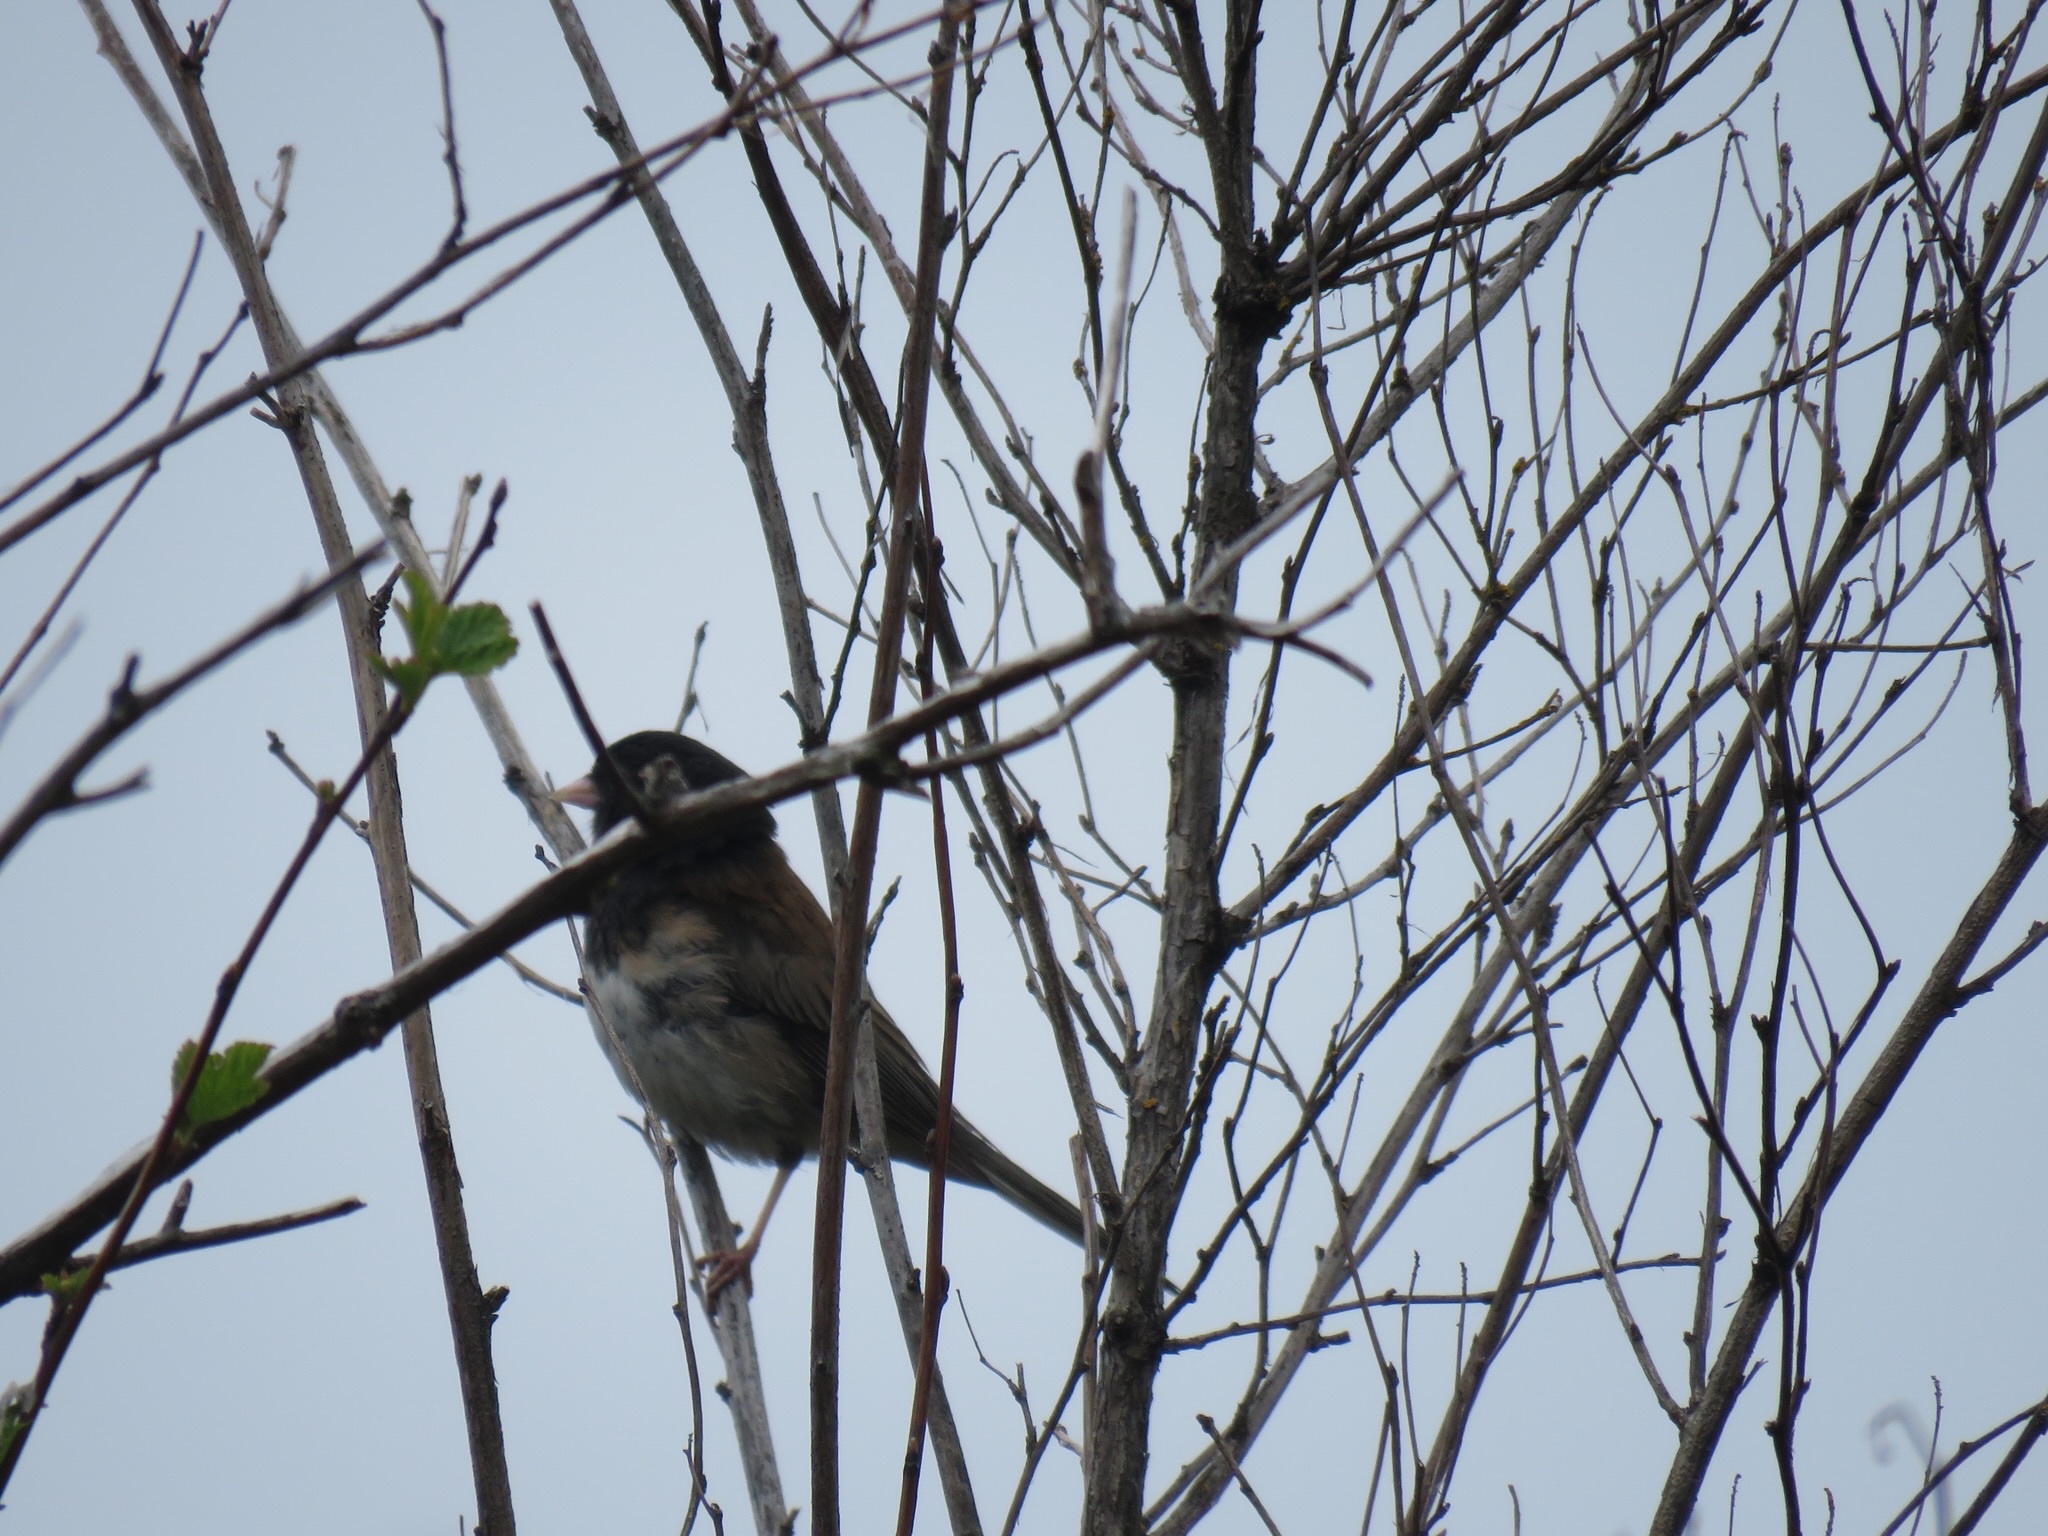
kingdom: Animalia
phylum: Chordata
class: Aves
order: Passeriformes
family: Passerellidae
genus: Junco
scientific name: Junco hyemalis
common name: Dark-eyed junco
